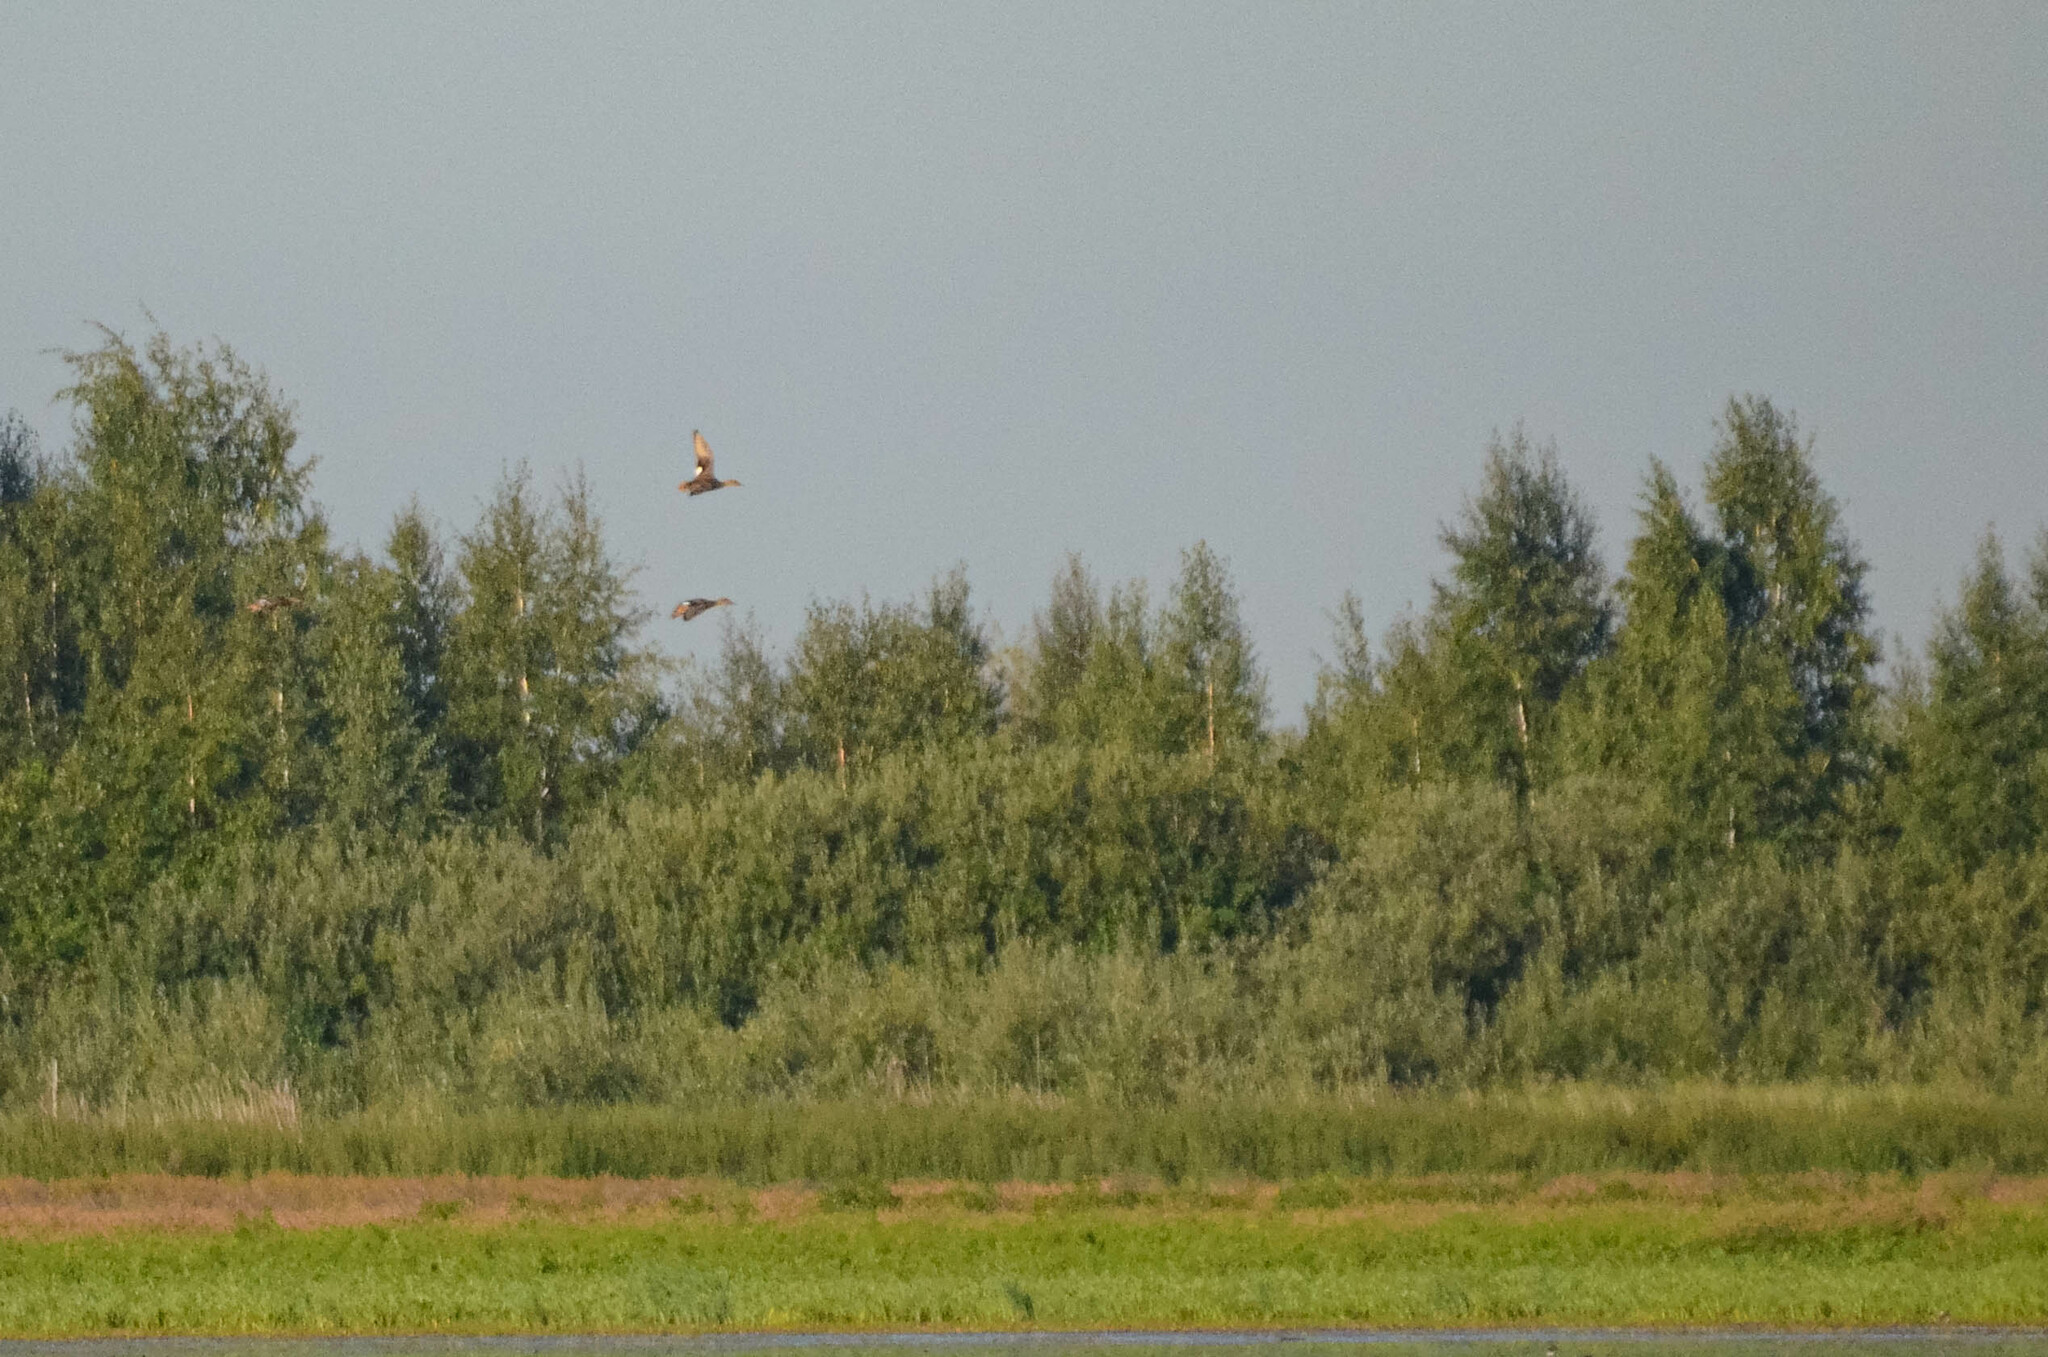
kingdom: Animalia
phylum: Chordata
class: Aves
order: Anseriformes
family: Anatidae
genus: Mareca
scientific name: Mareca strepera
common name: Gadwall
